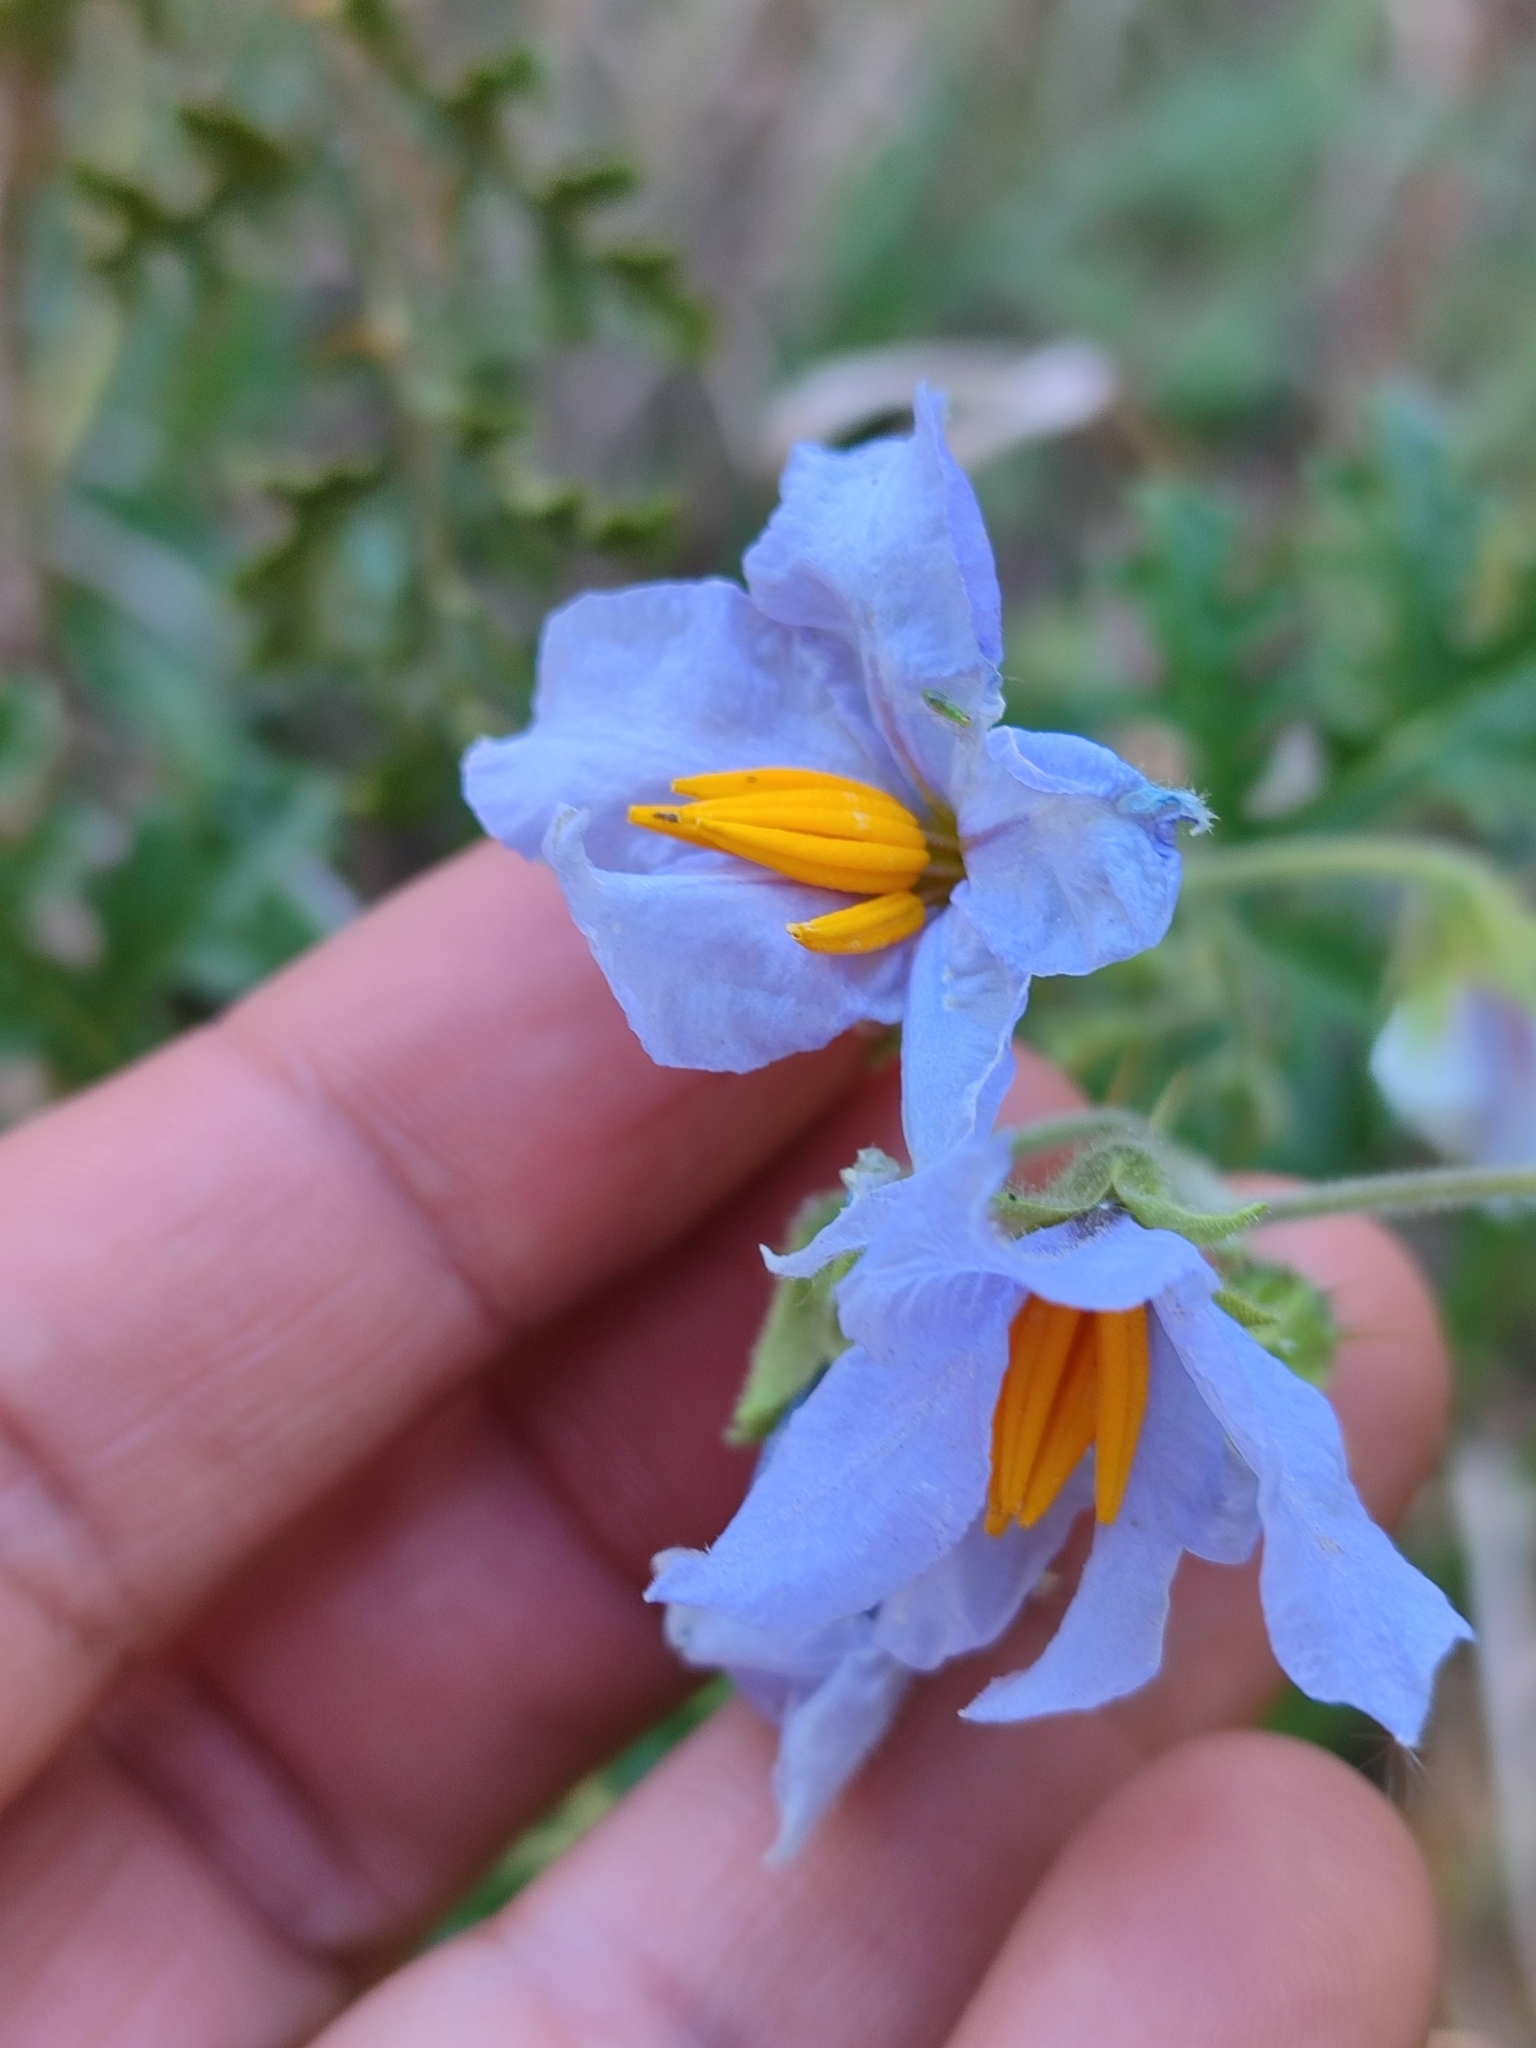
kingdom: Plantae
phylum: Tracheophyta
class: Magnoliopsida
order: Solanales
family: Solanaceae
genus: Solanum
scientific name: Solanum sisymbriifolium
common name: Red buffalo-bur
